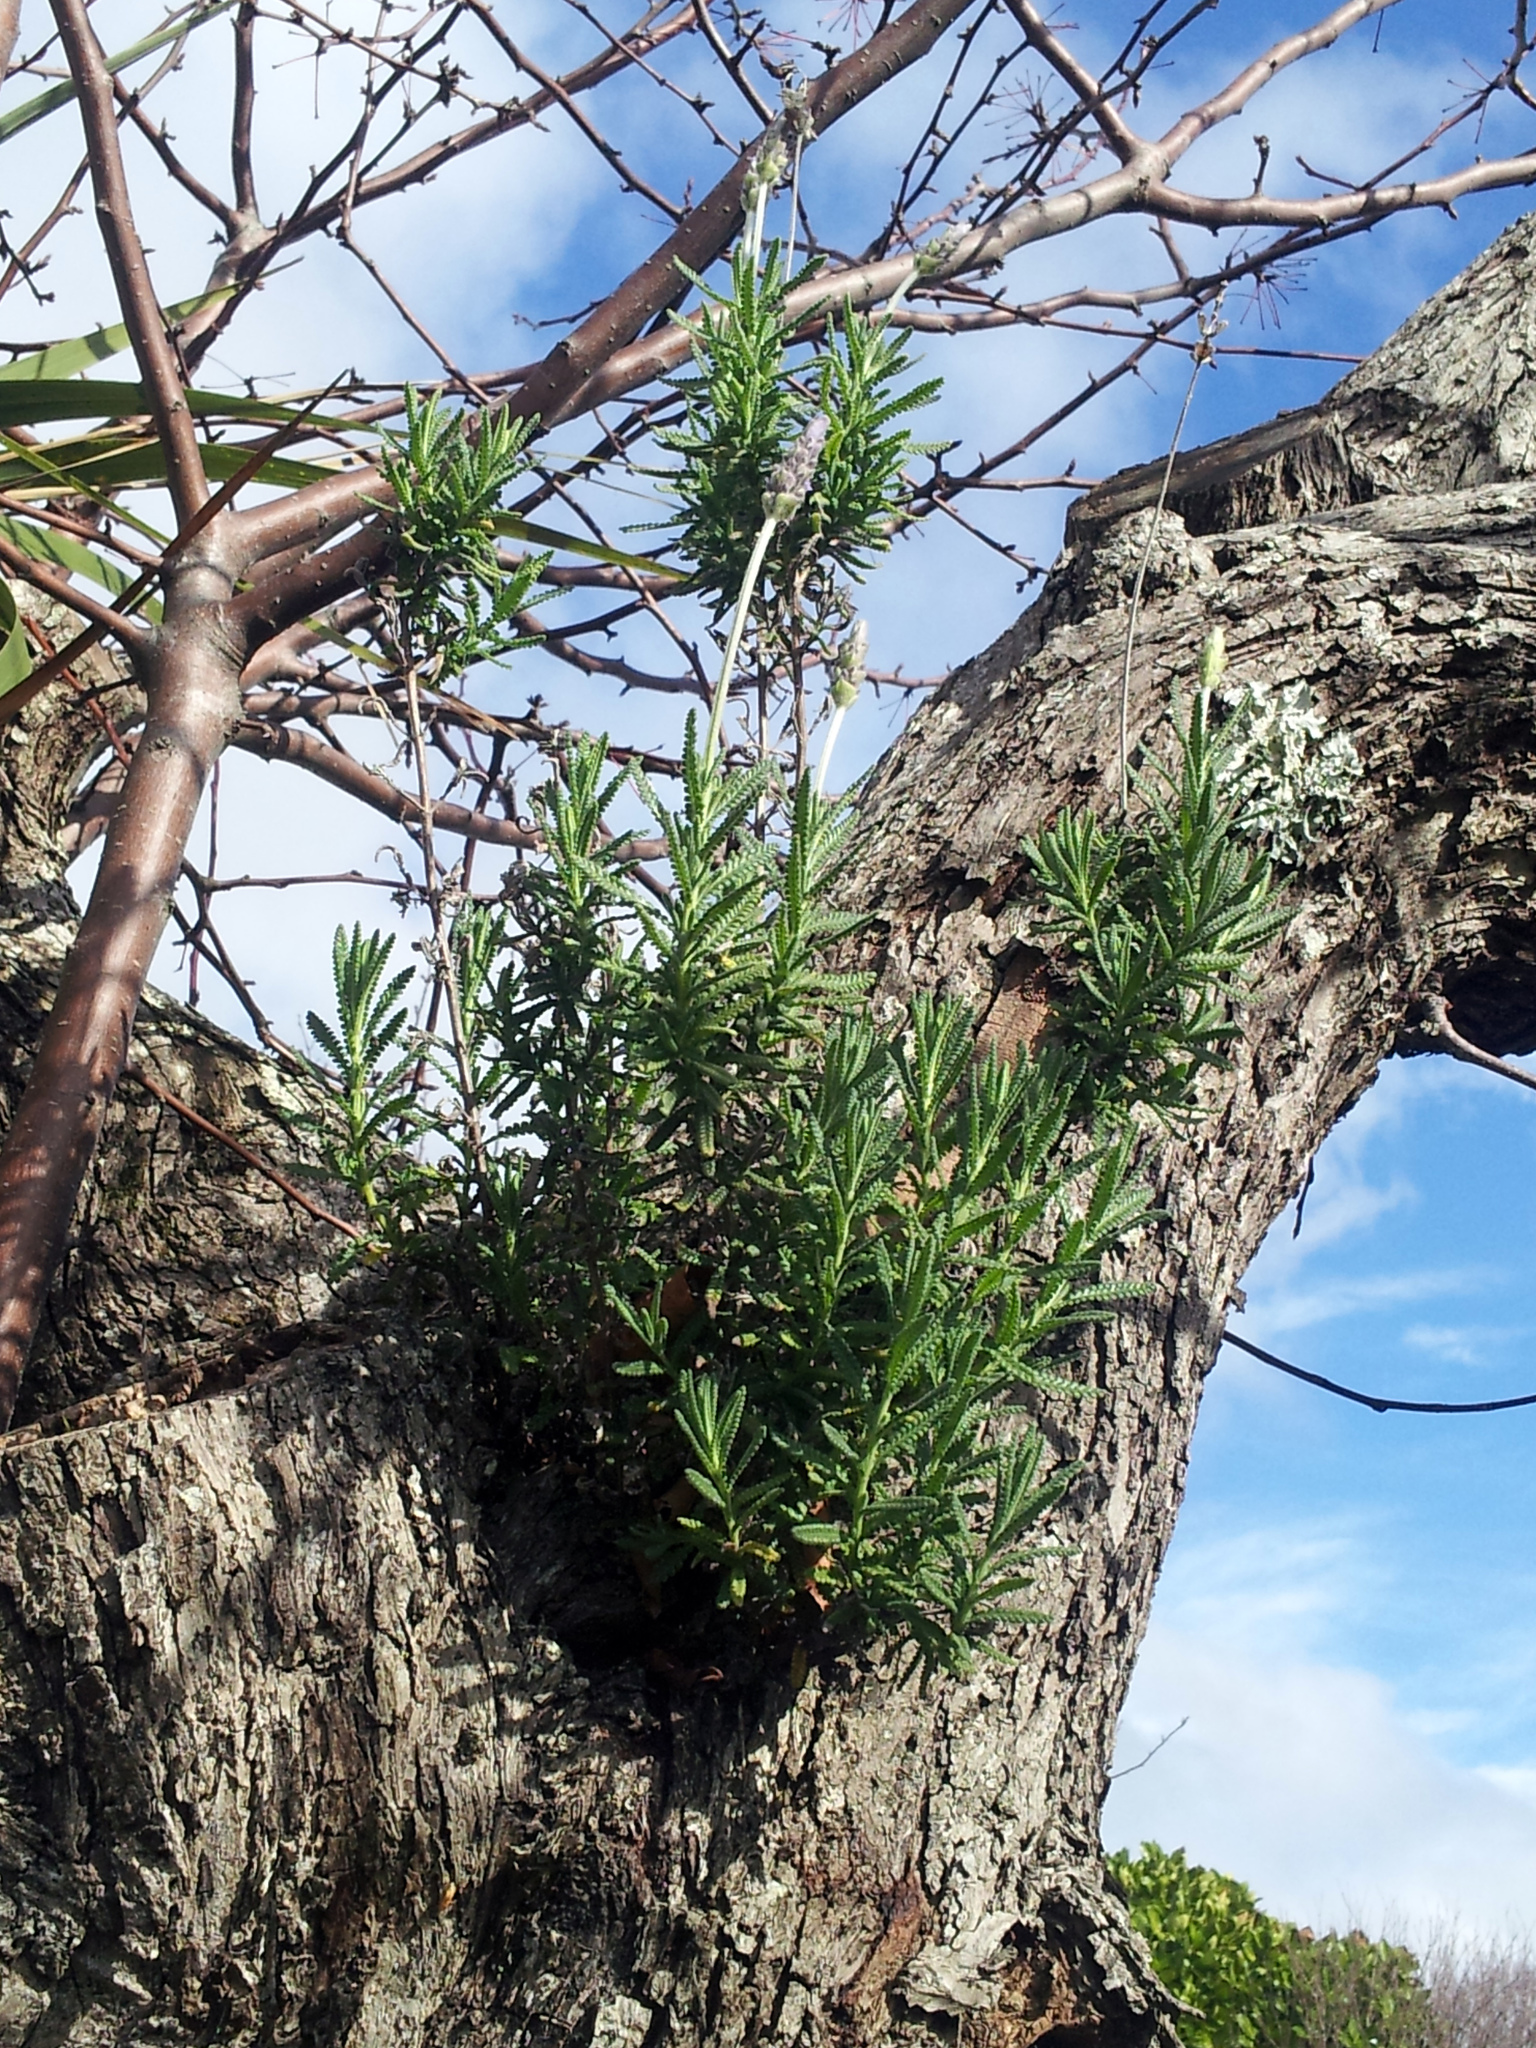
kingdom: Plantae
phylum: Tracheophyta
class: Magnoliopsida
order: Lamiales
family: Lamiaceae
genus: Lavandula
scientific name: Lavandula dentata
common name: French lavender
